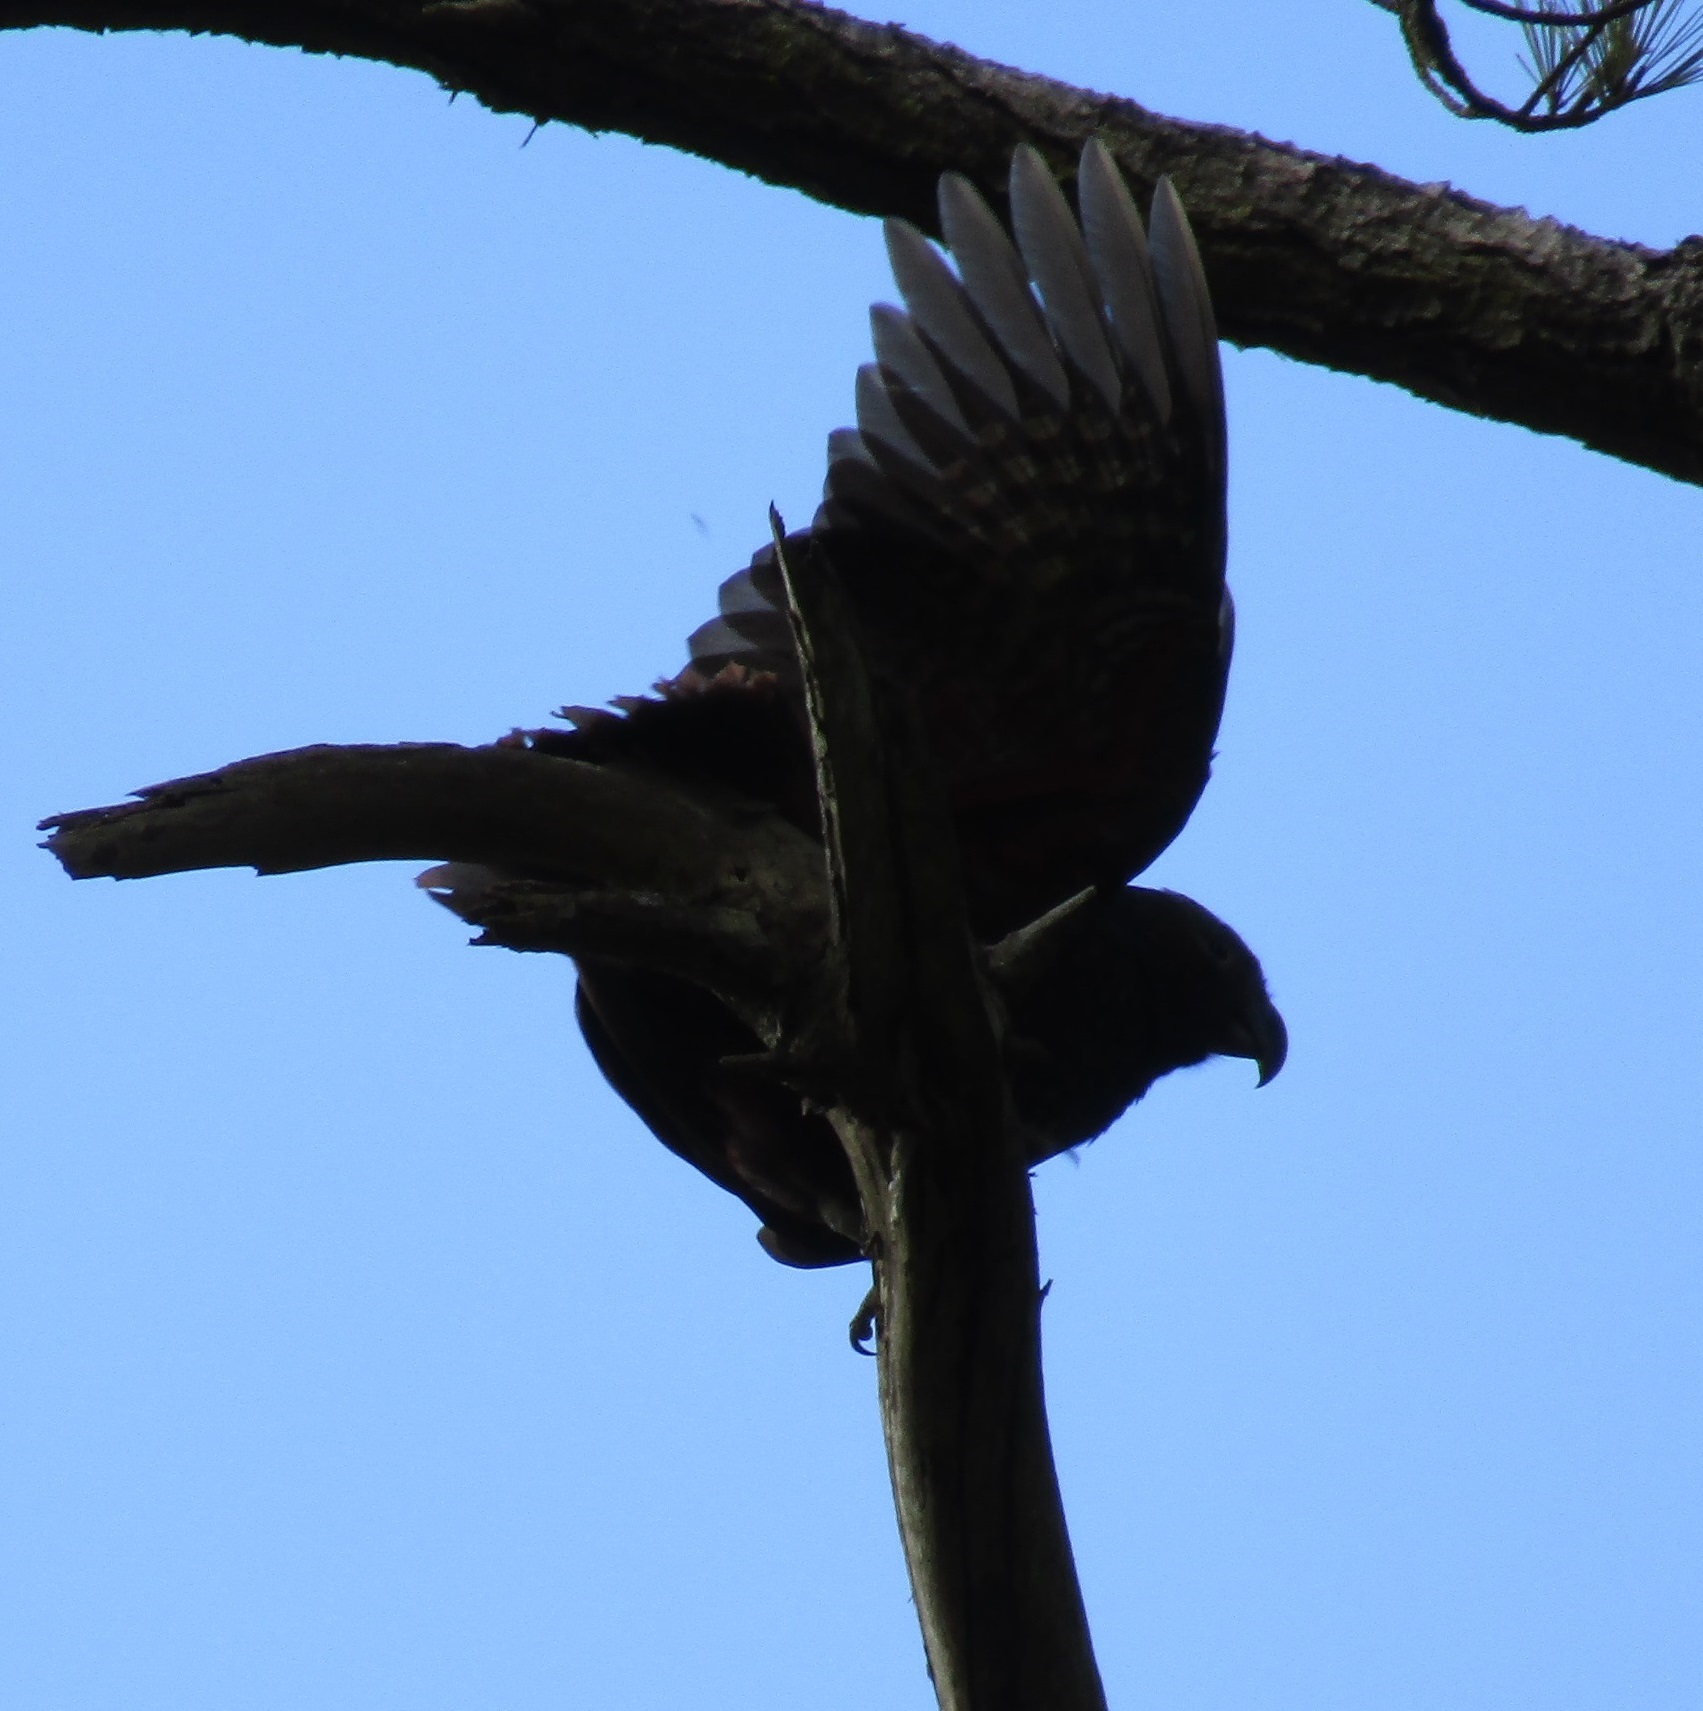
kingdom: Animalia
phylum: Chordata
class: Aves
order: Psittaciformes
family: Psittacidae
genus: Nestor
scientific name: Nestor meridionalis
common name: New zealand kaka
